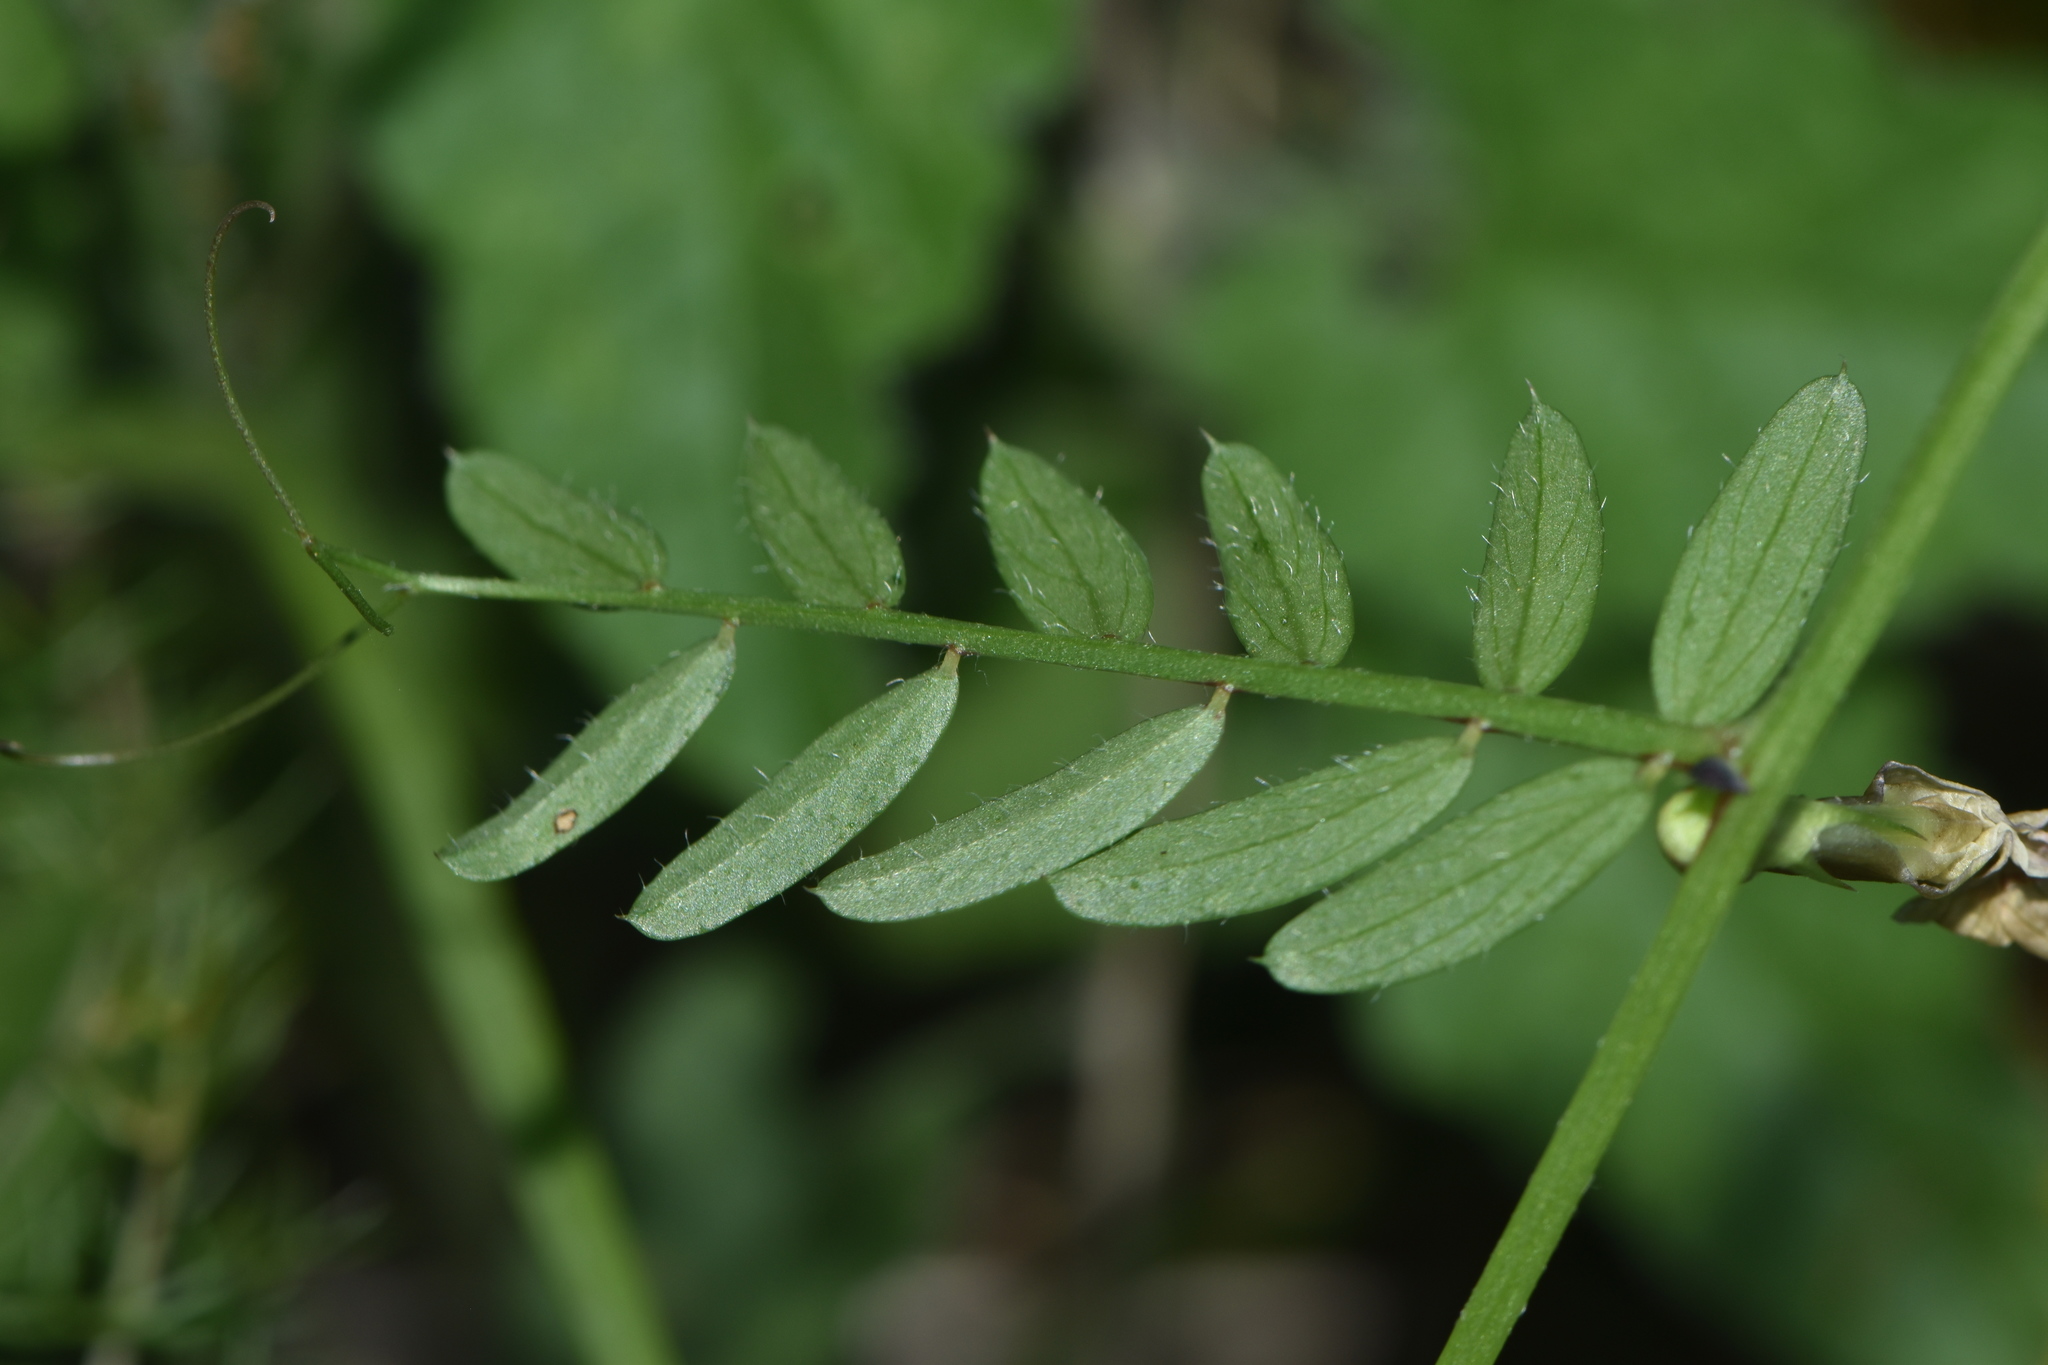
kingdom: Plantae
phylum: Tracheophyta
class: Magnoliopsida
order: Fabales
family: Fabaceae
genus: Vicia
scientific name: Vicia lutea
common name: Smooth yellow vetch
